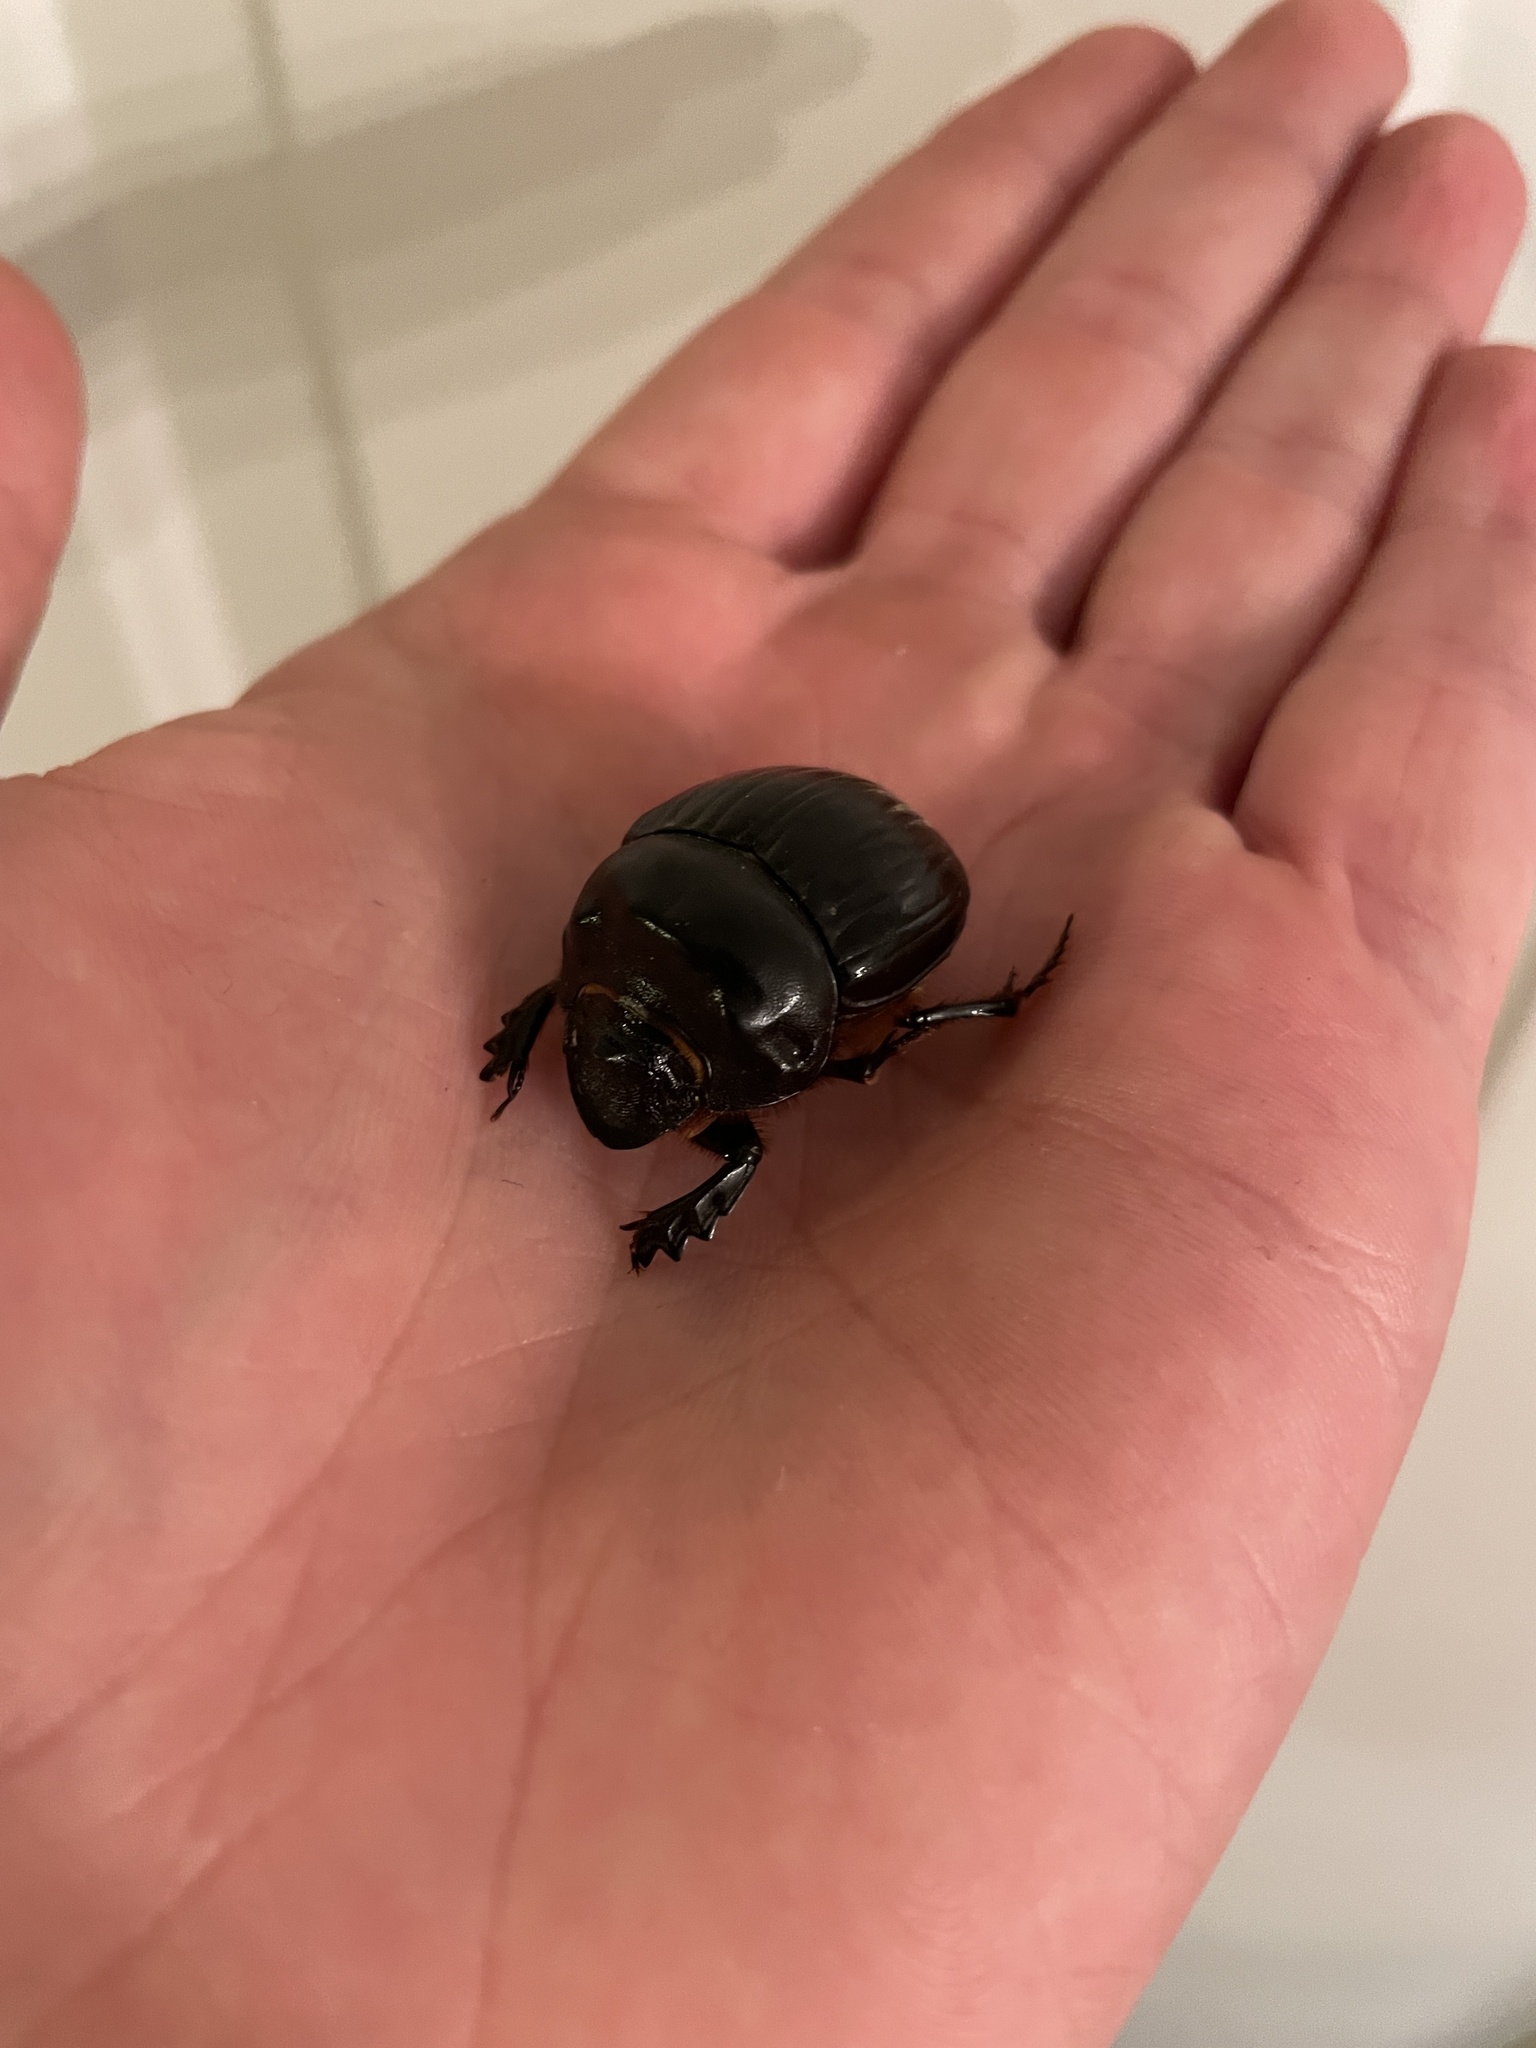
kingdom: Animalia
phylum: Arthropoda
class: Insecta
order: Coleoptera
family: Scarabaeidae
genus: Dichotomius
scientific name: Dichotomius carolinus
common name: Carolina copris
